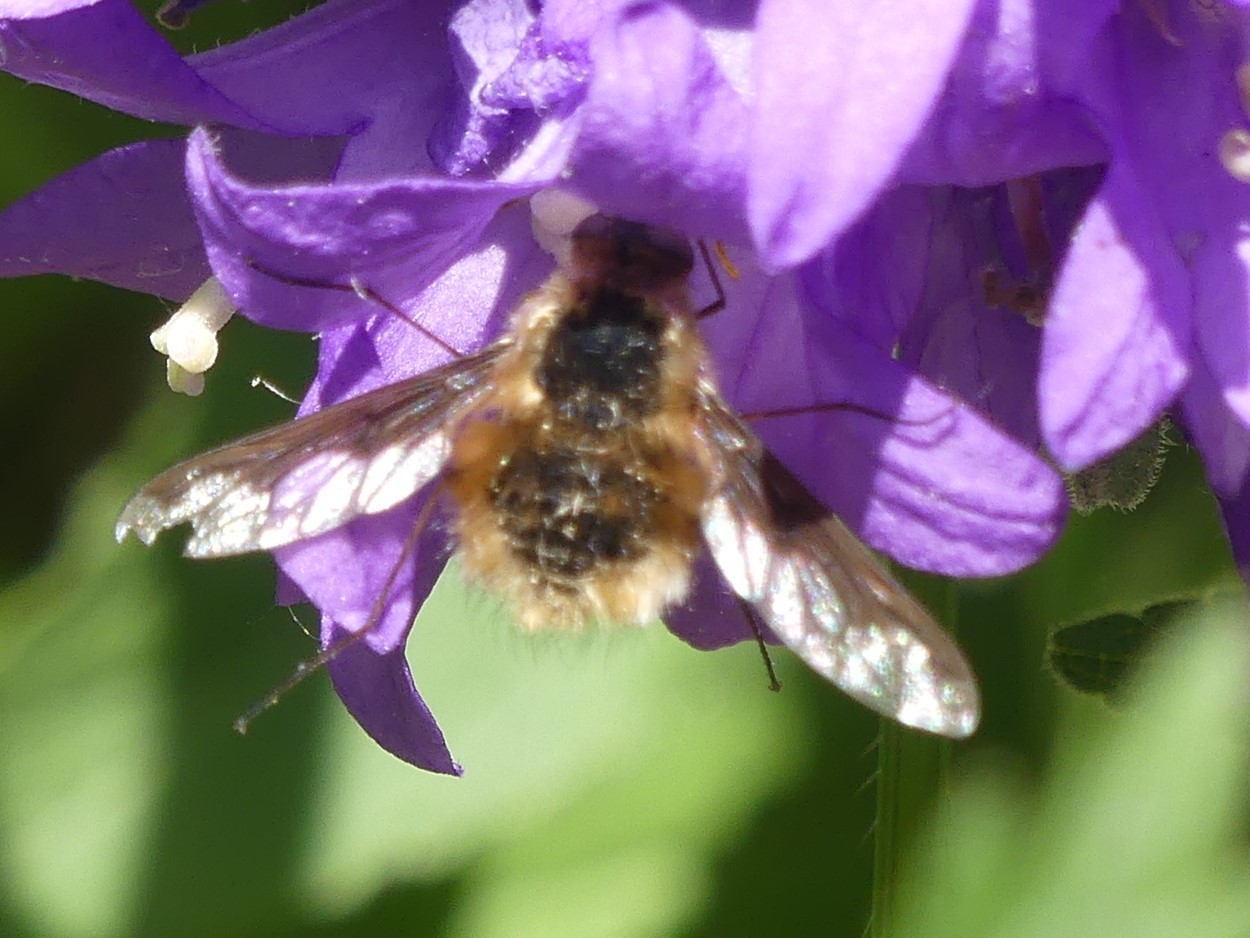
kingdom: Animalia
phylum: Arthropoda
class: Insecta
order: Diptera
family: Bombyliidae
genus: Bombylius
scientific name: Bombylius major
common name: Bee fly
